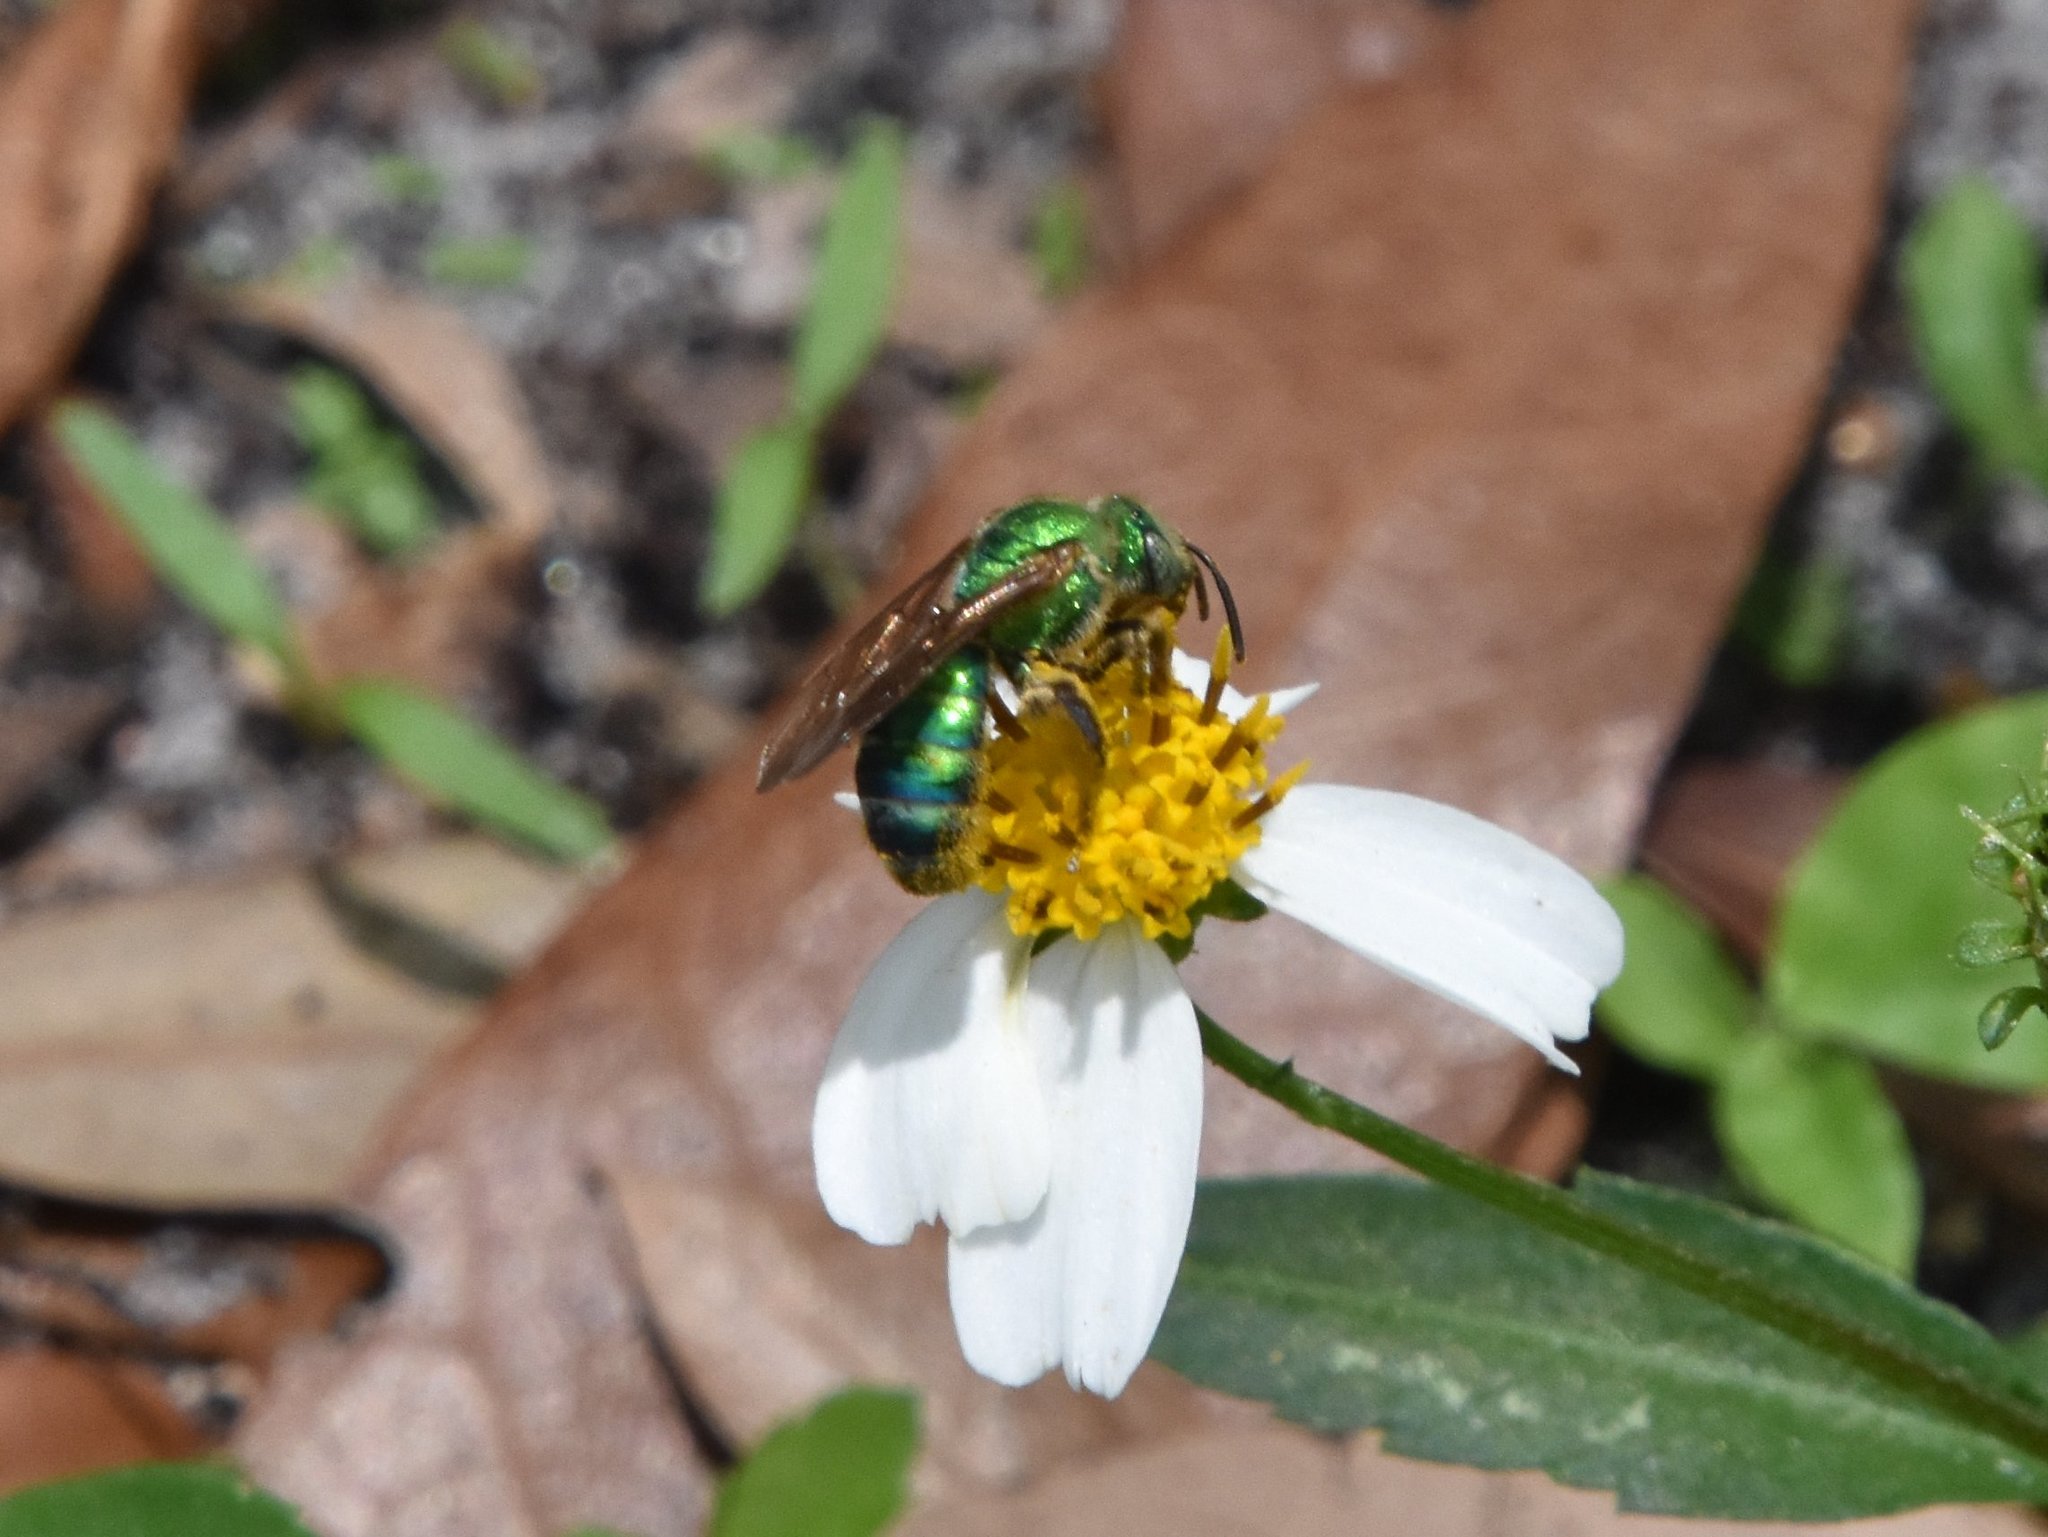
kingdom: Animalia
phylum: Arthropoda
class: Insecta
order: Hymenoptera
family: Halictidae
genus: Agapostemon
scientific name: Agapostemon splendens
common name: Brown-winged striped sweat bee
